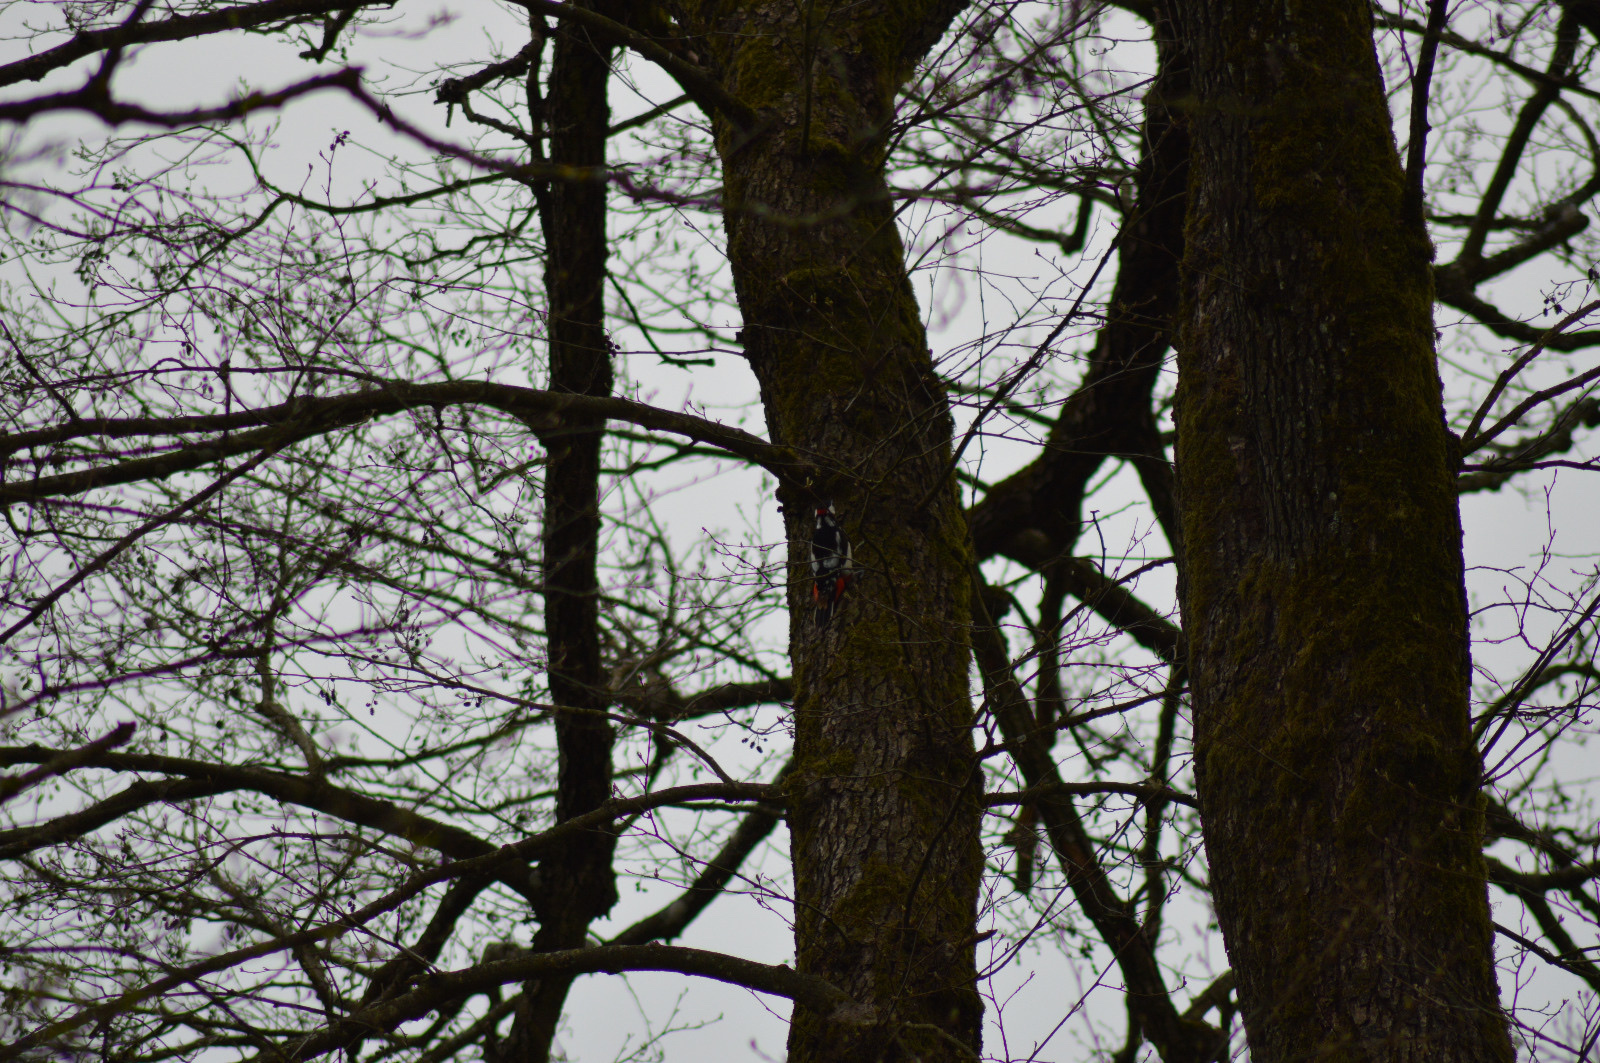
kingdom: Animalia
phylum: Chordata
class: Aves
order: Piciformes
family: Picidae
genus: Dendrocopos
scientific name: Dendrocopos major
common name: Great spotted woodpecker
